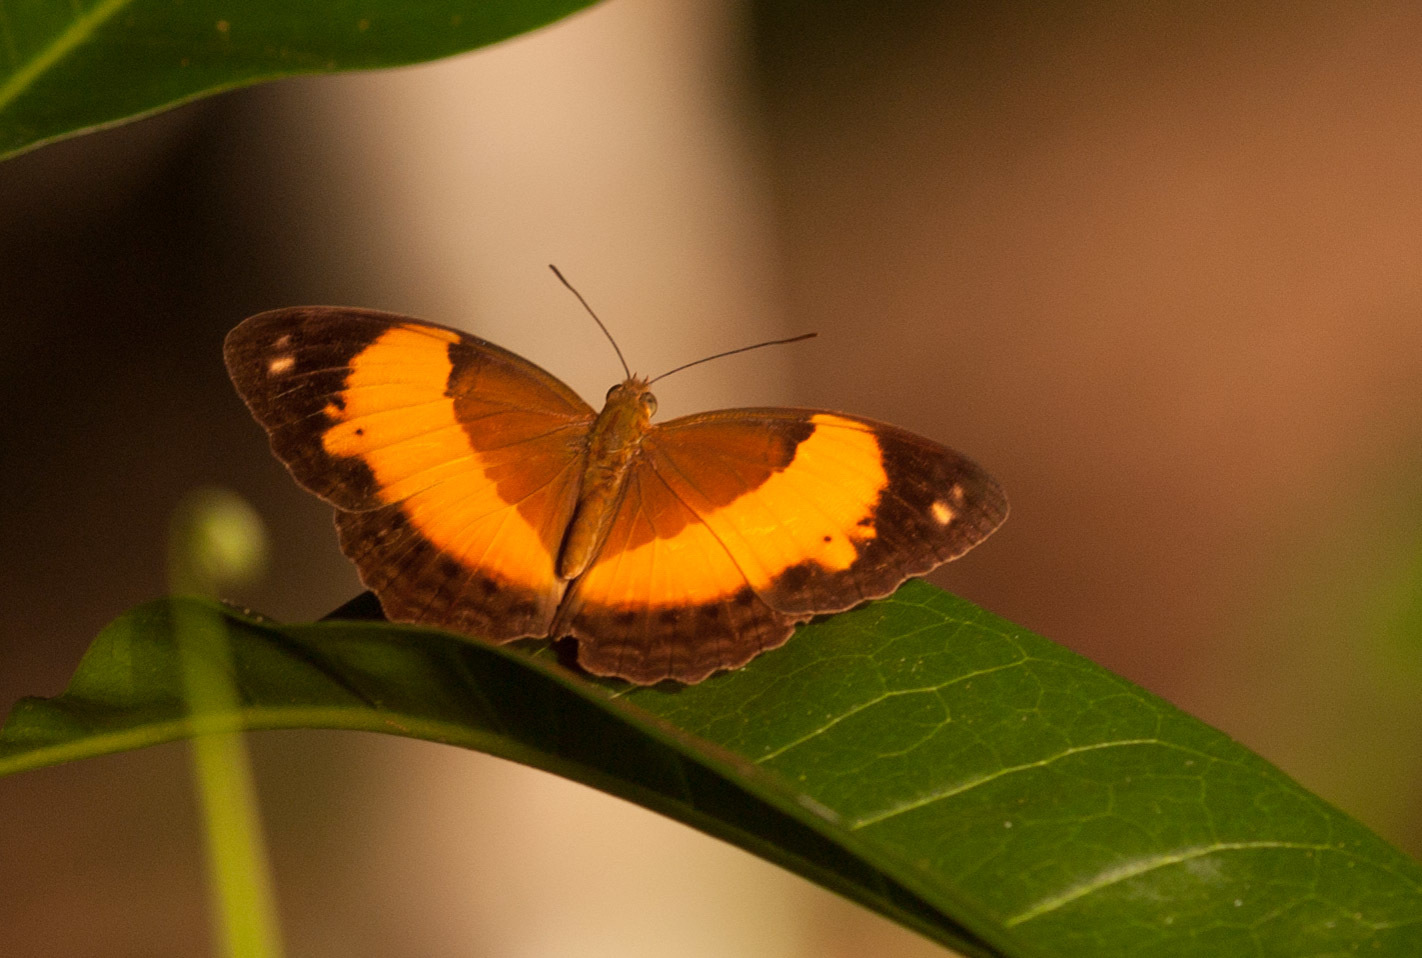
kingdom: Animalia
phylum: Arthropoda
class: Insecta
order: Lepidoptera
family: Nymphalidae
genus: Cupha
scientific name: Cupha prosope
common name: Bordered rustic
